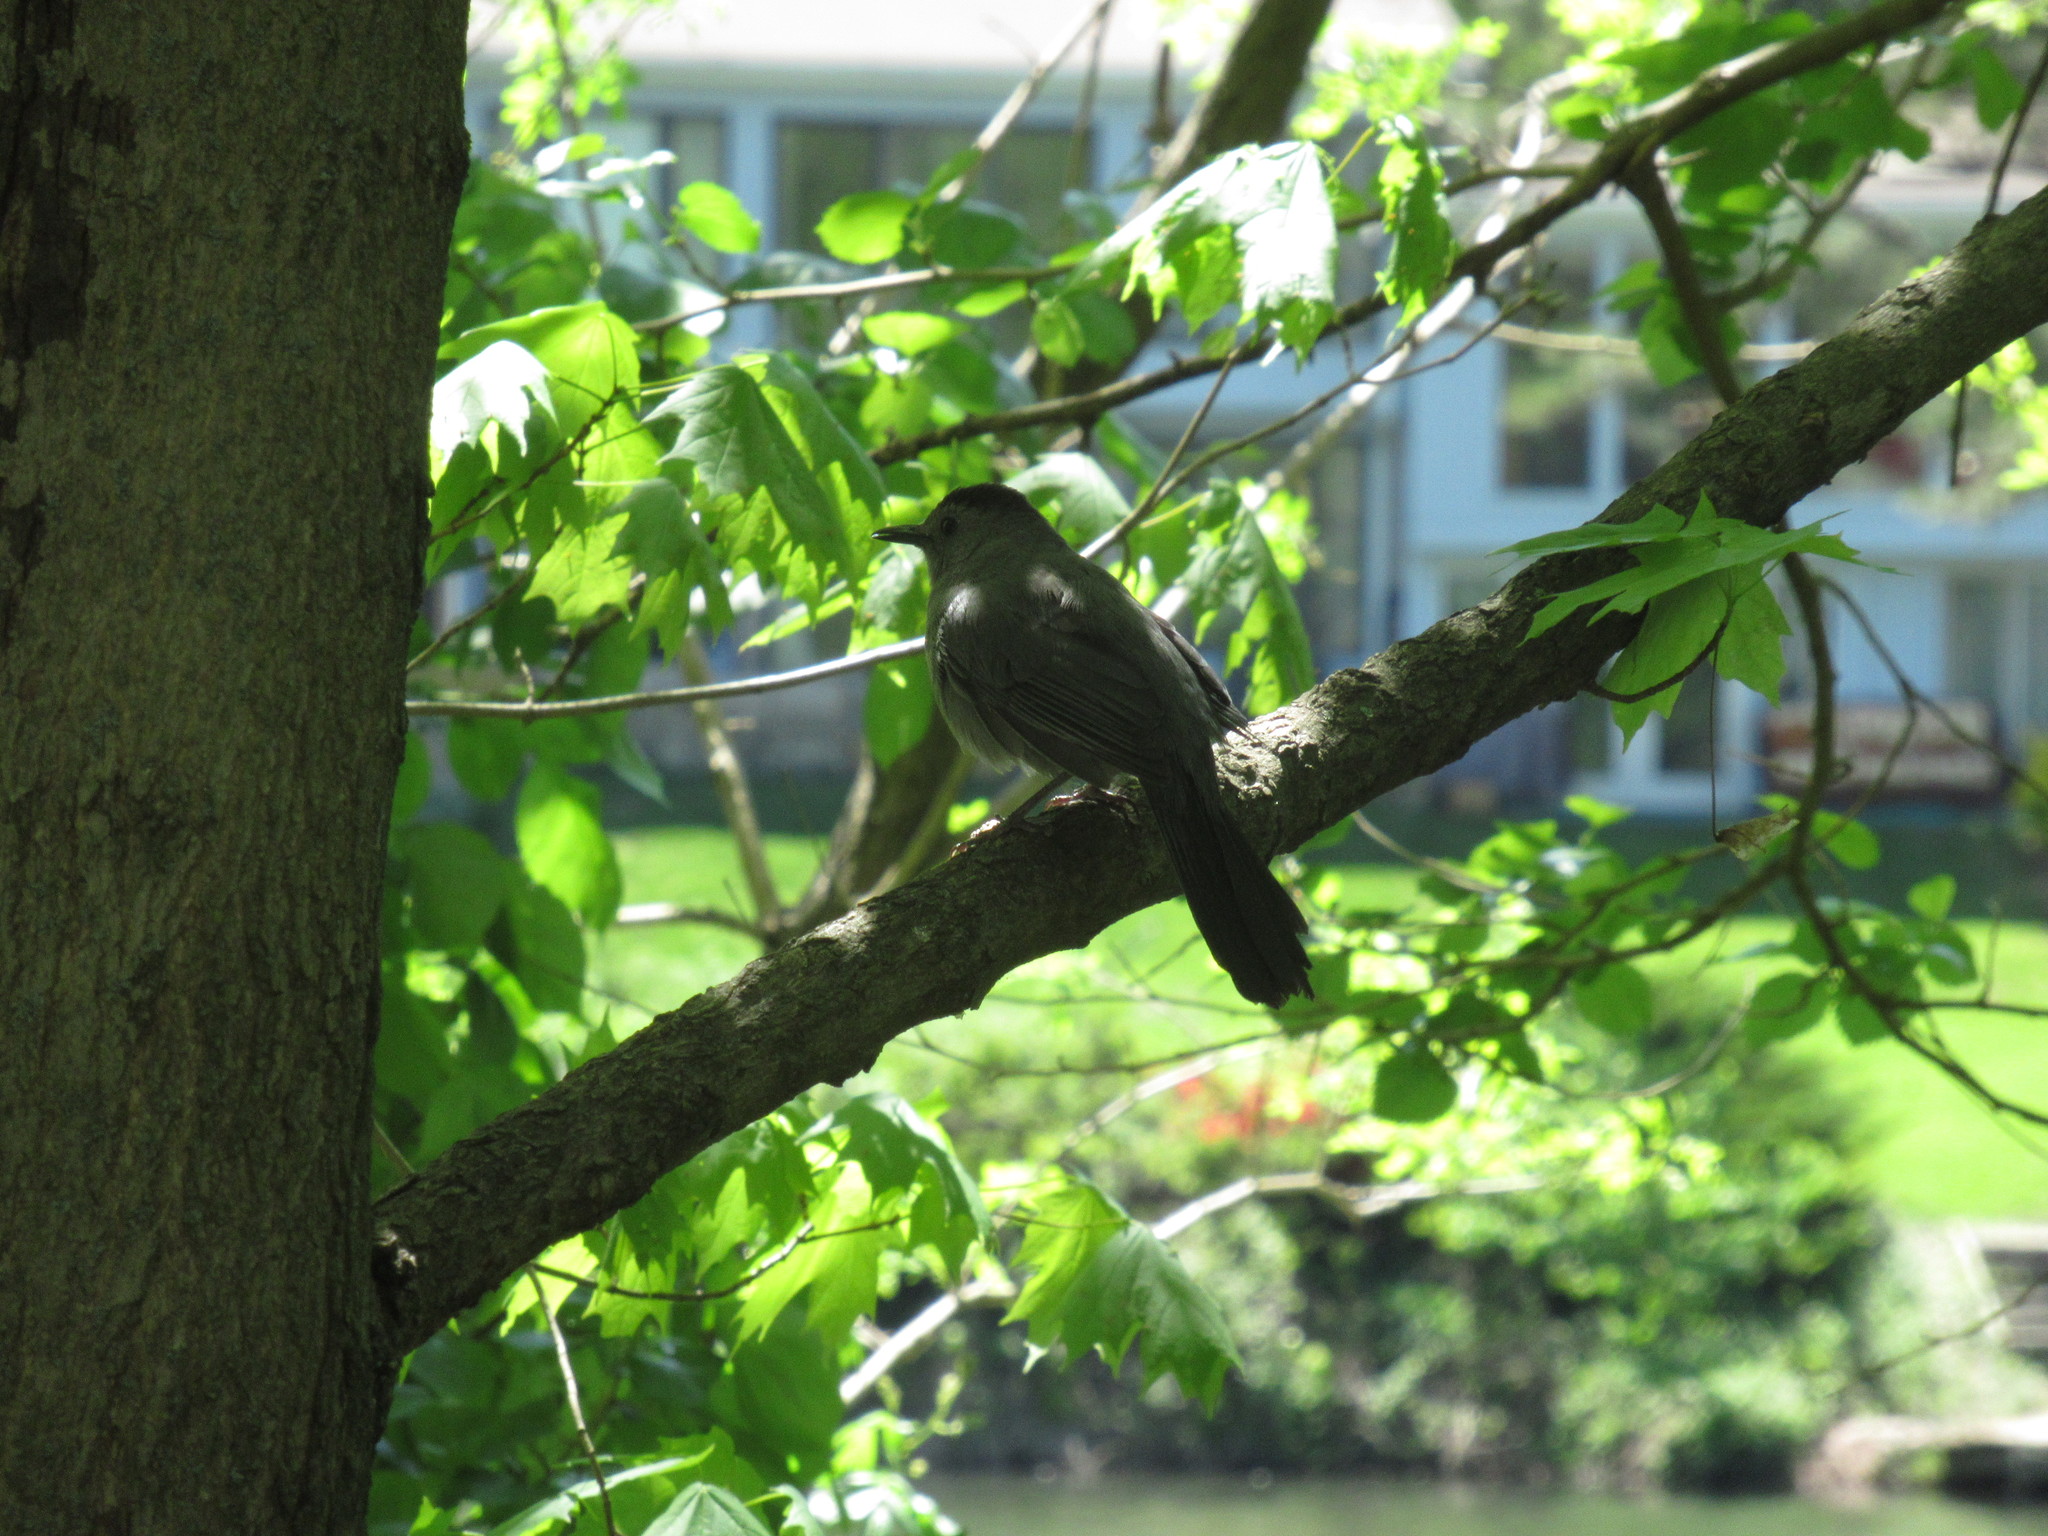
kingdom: Animalia
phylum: Chordata
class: Aves
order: Passeriformes
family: Mimidae
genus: Dumetella
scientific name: Dumetella carolinensis
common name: Gray catbird
